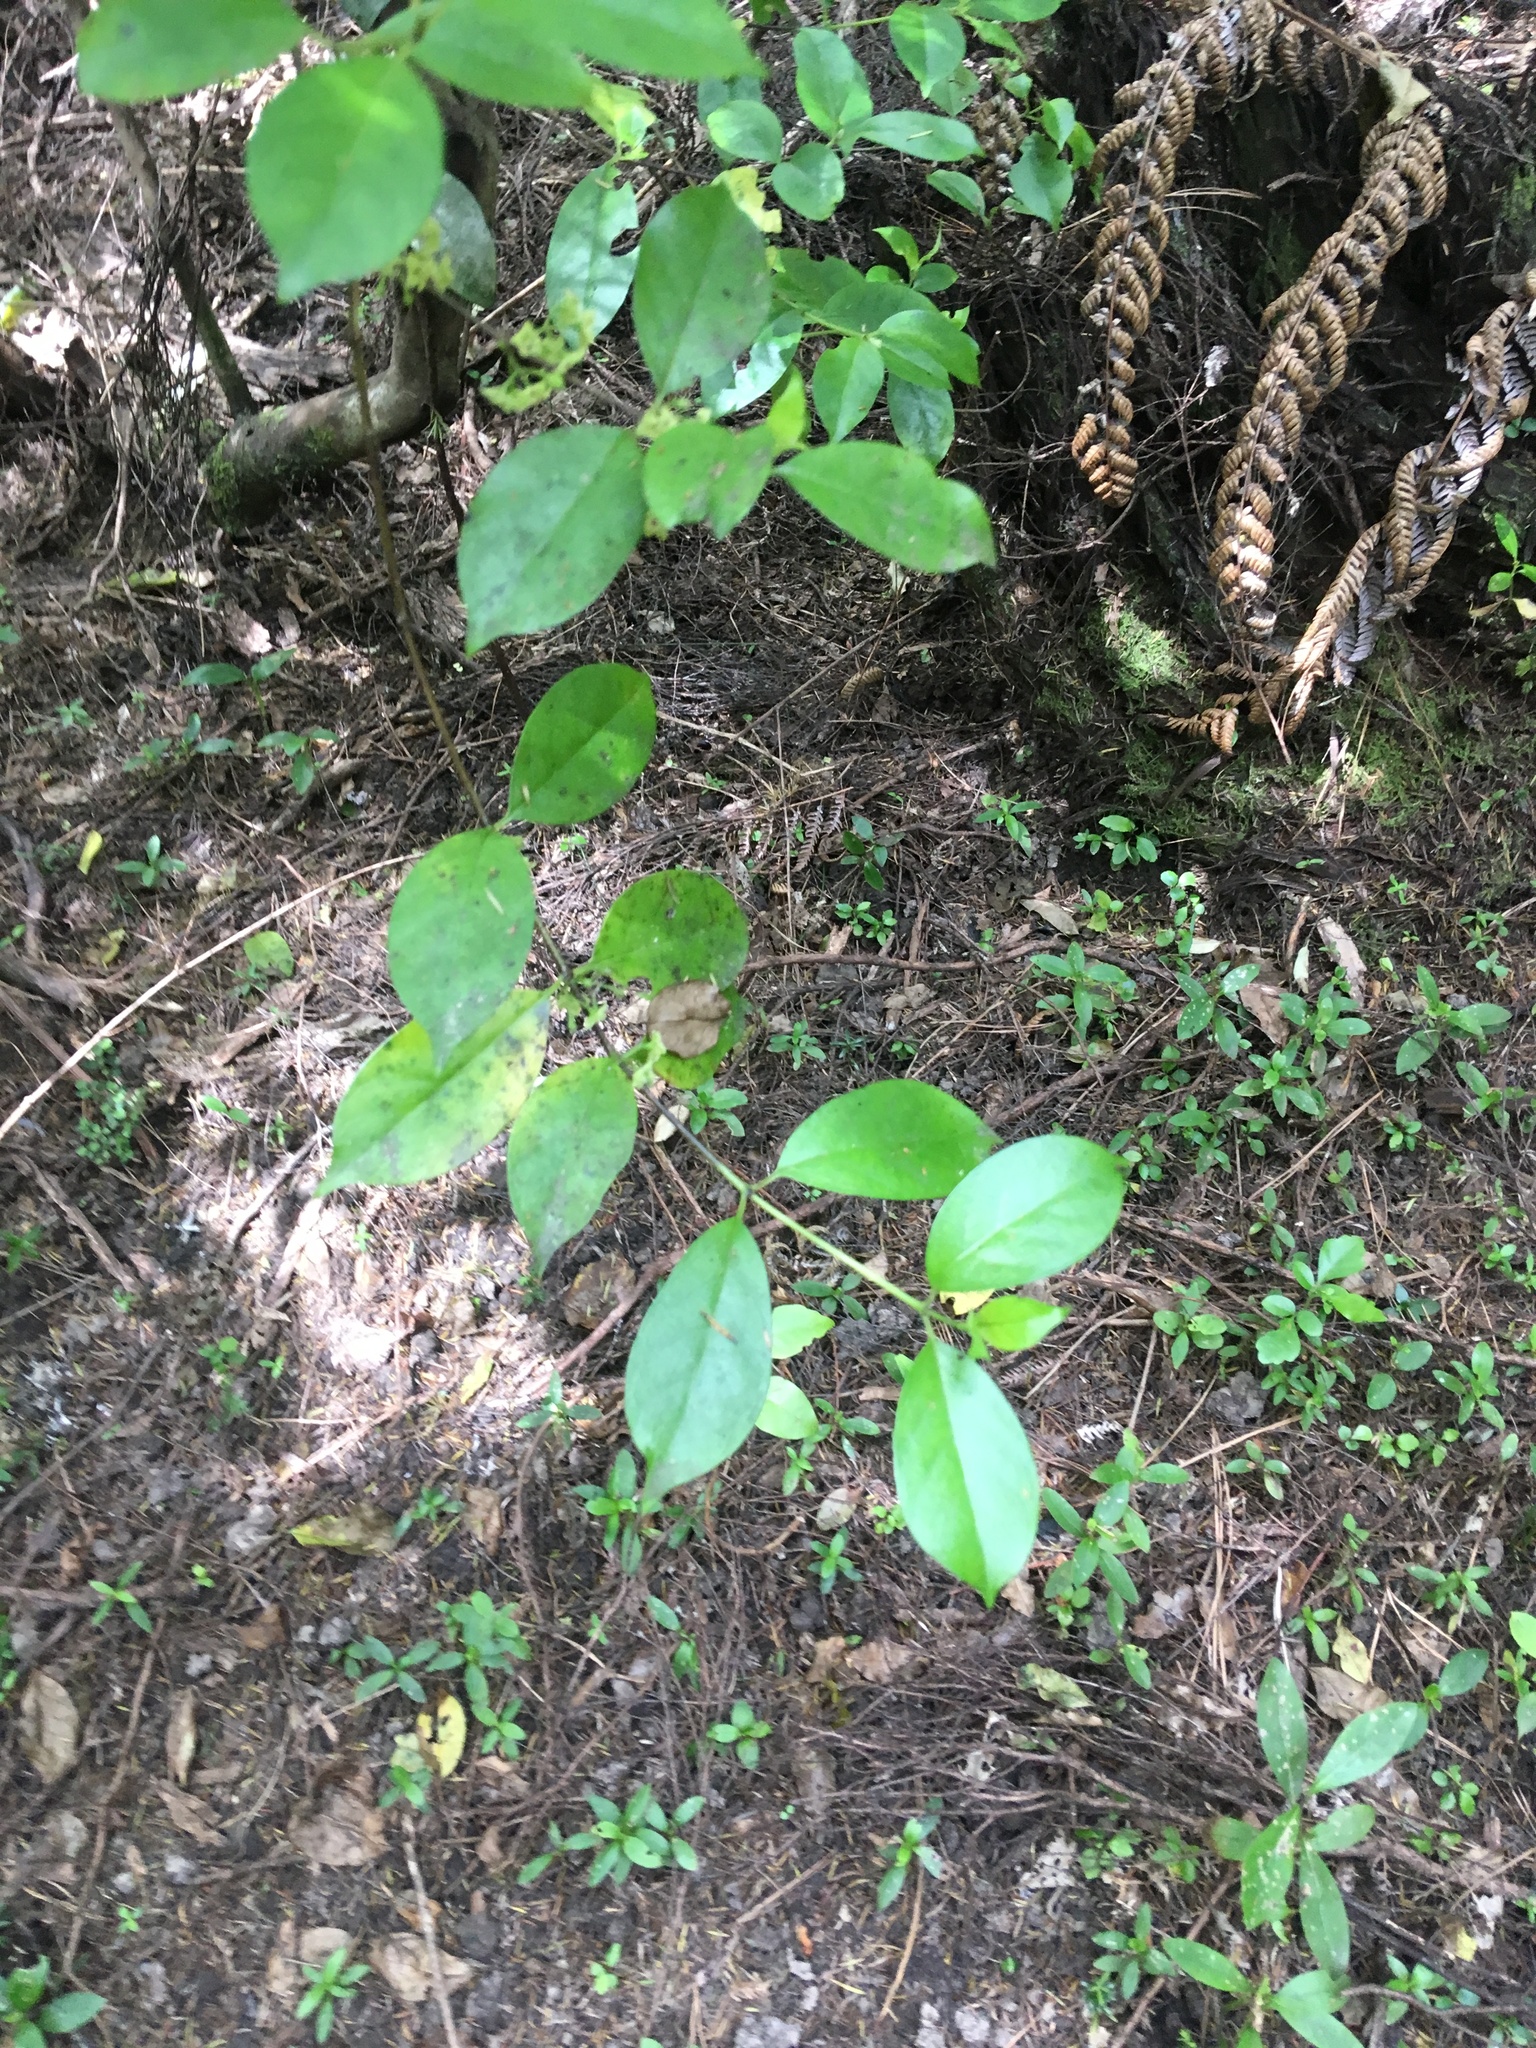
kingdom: Plantae
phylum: Tracheophyta
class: Magnoliopsida
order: Gentianales
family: Loganiaceae
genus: Geniostoma
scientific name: Geniostoma ligustrifolium
